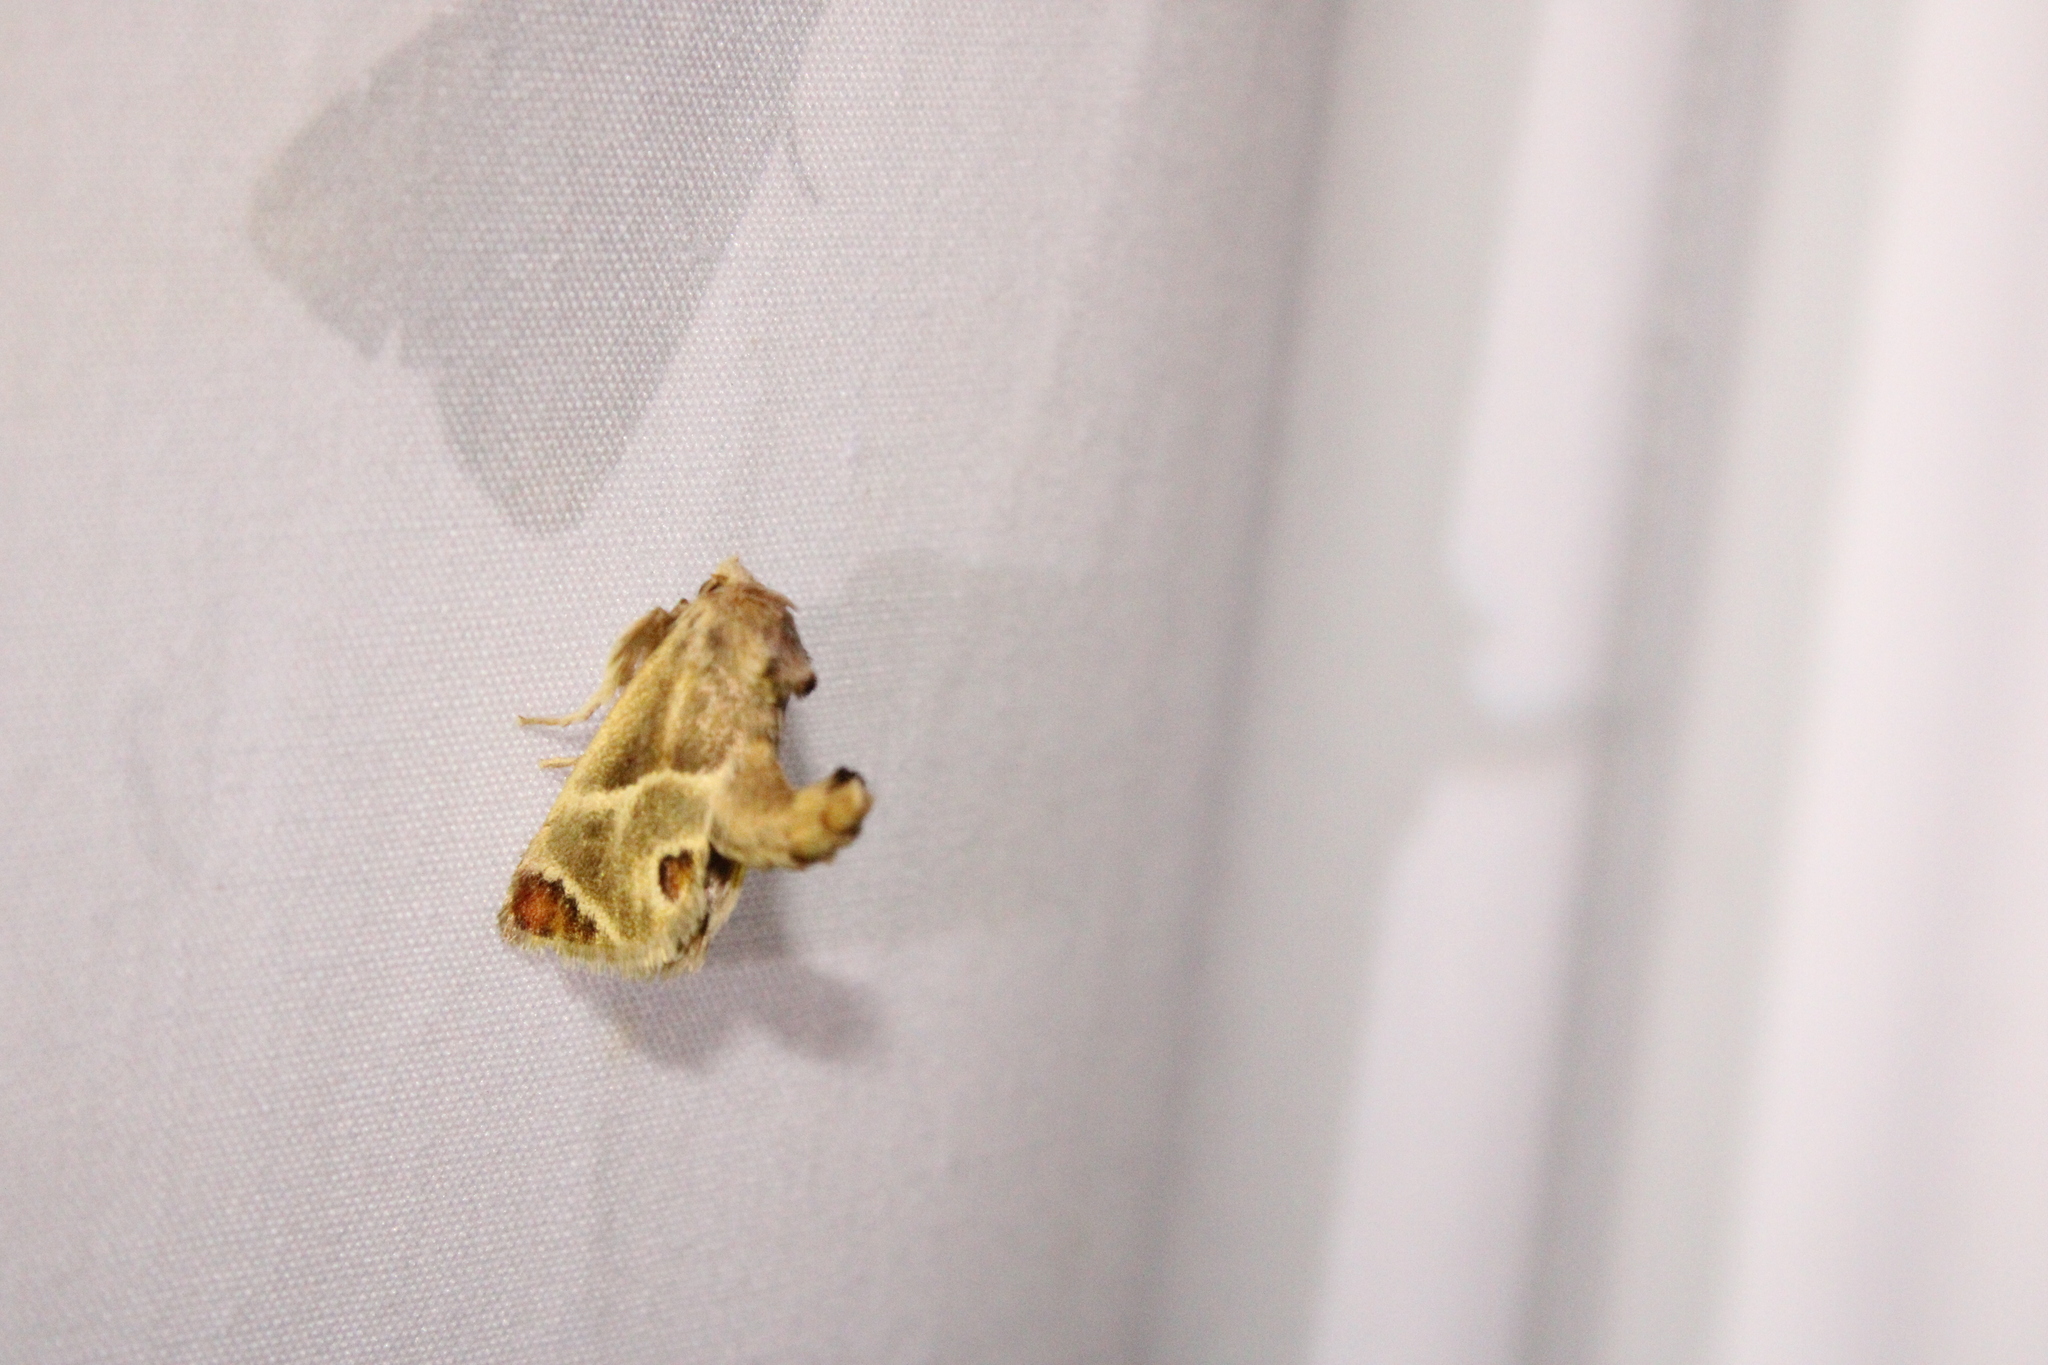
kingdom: Animalia
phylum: Arthropoda
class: Insecta
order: Lepidoptera
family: Limacodidae
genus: Apoda
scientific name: Apoda biguttata
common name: Shagreened slug moth
